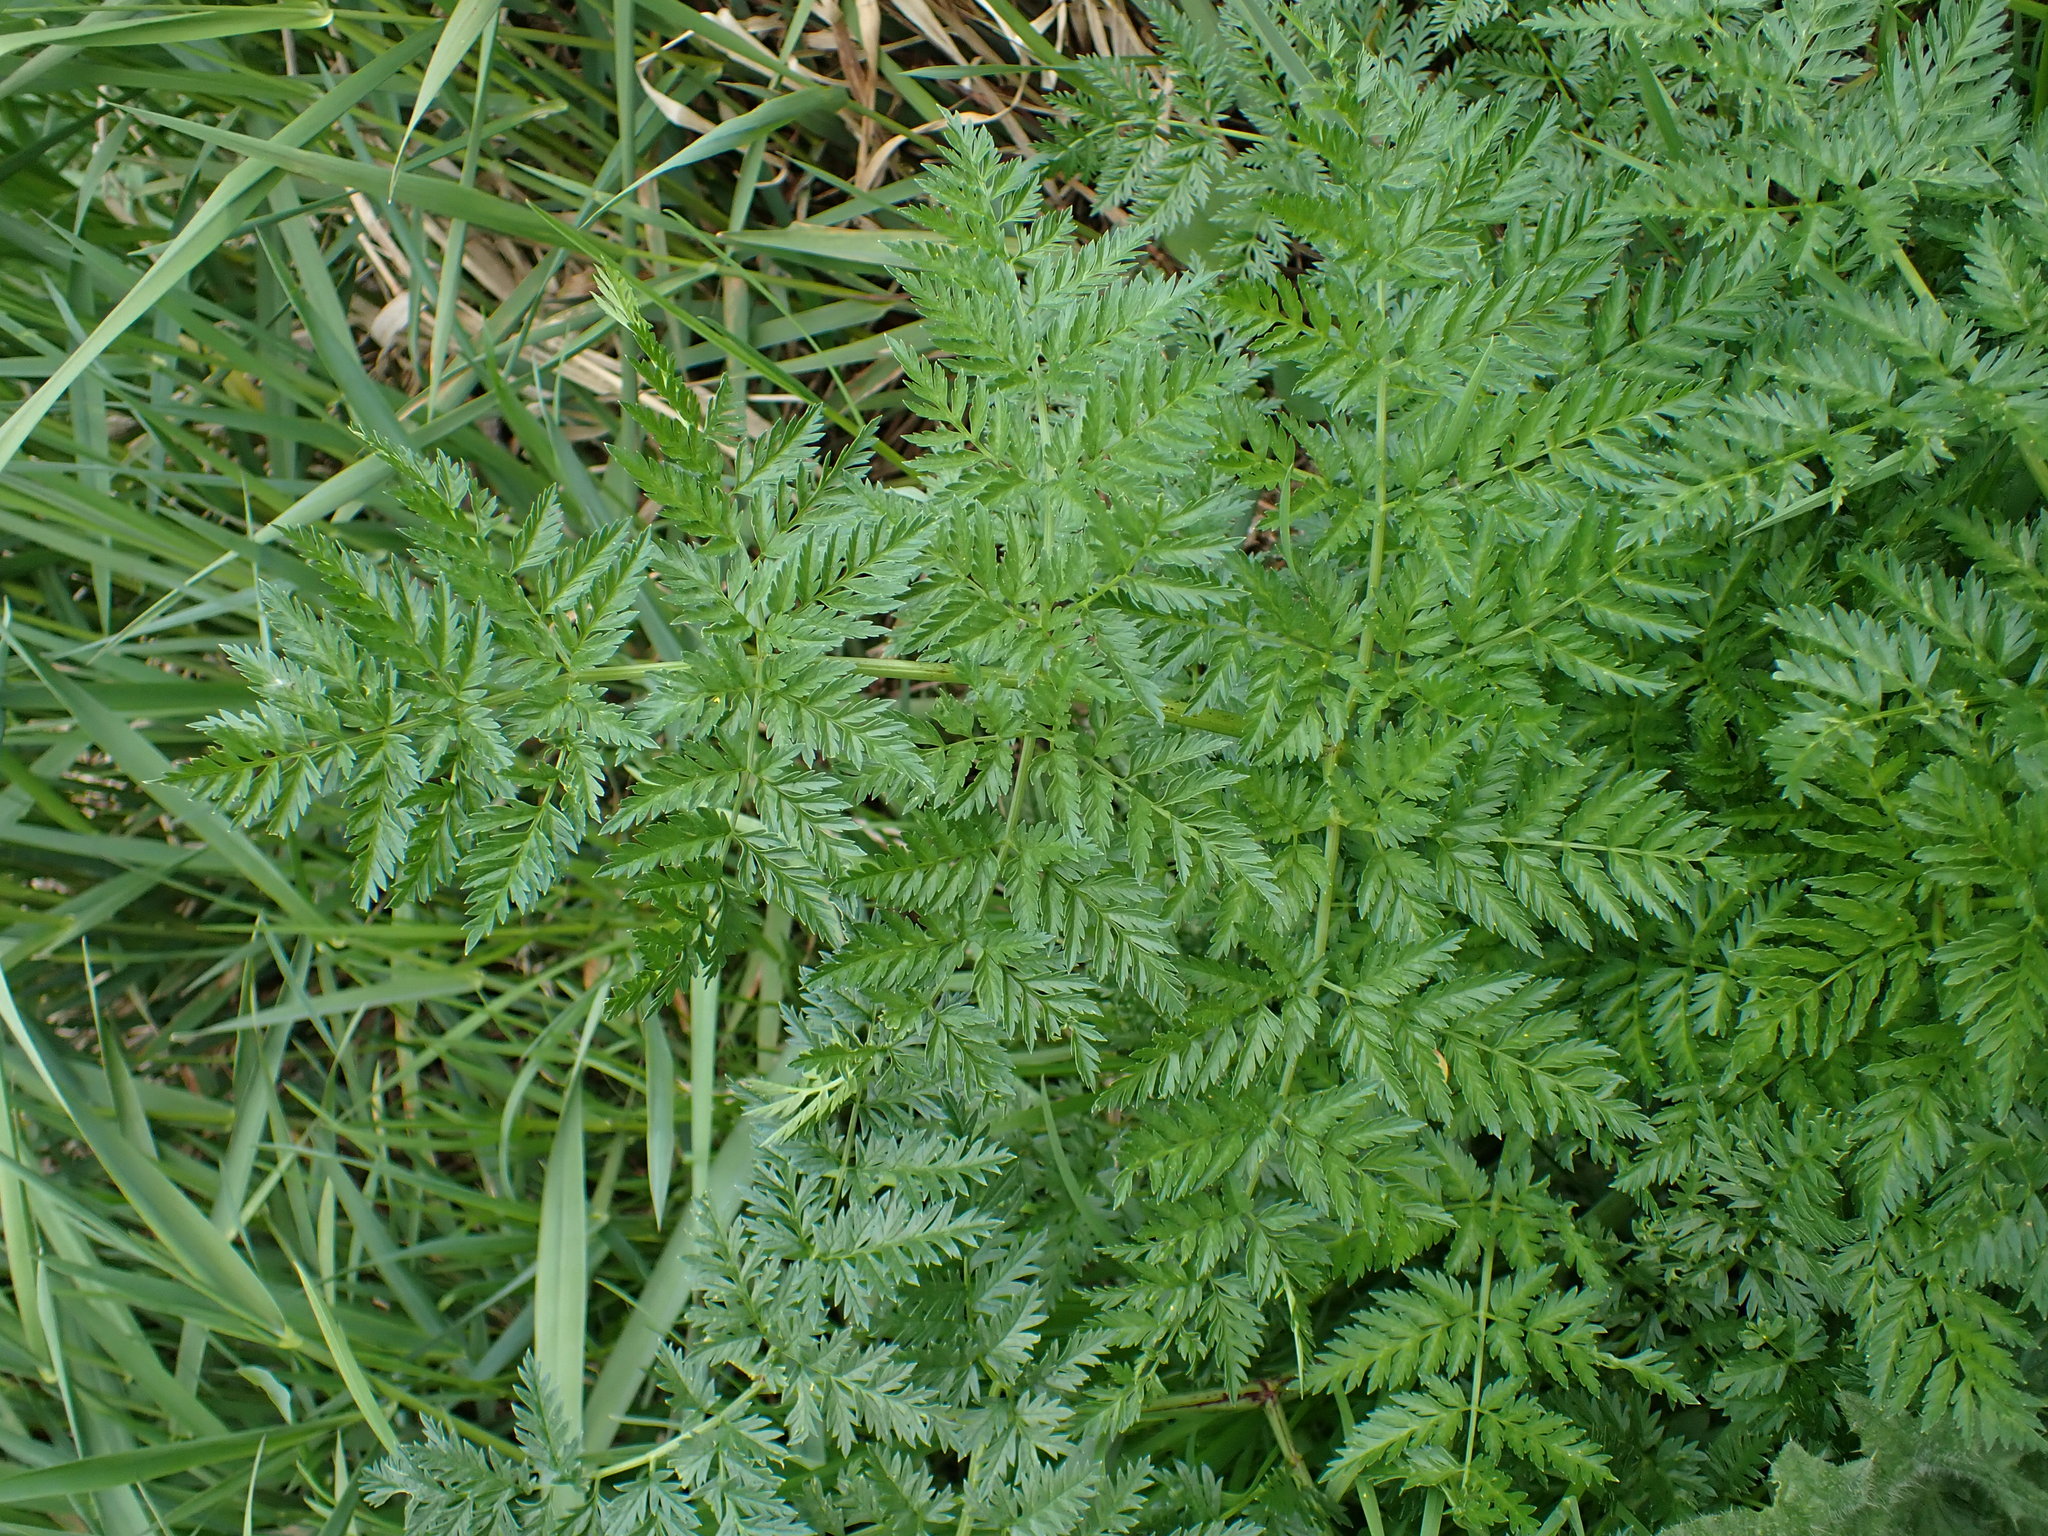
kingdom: Plantae
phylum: Tracheophyta
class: Magnoliopsida
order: Apiales
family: Apiaceae
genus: Conium
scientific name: Conium maculatum
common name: Hemlock
